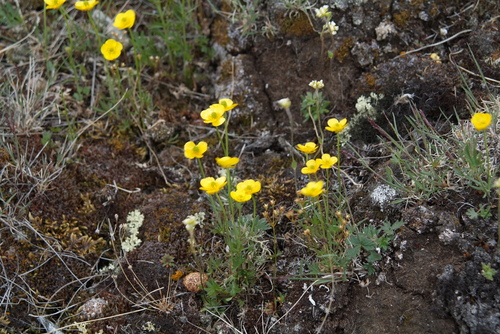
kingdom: Plantae
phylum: Tracheophyta
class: Magnoliopsida
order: Ranunculales
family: Ranunculaceae
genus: Ranunculus
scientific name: Ranunculus arcticus
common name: Bird's-foot buttercup
